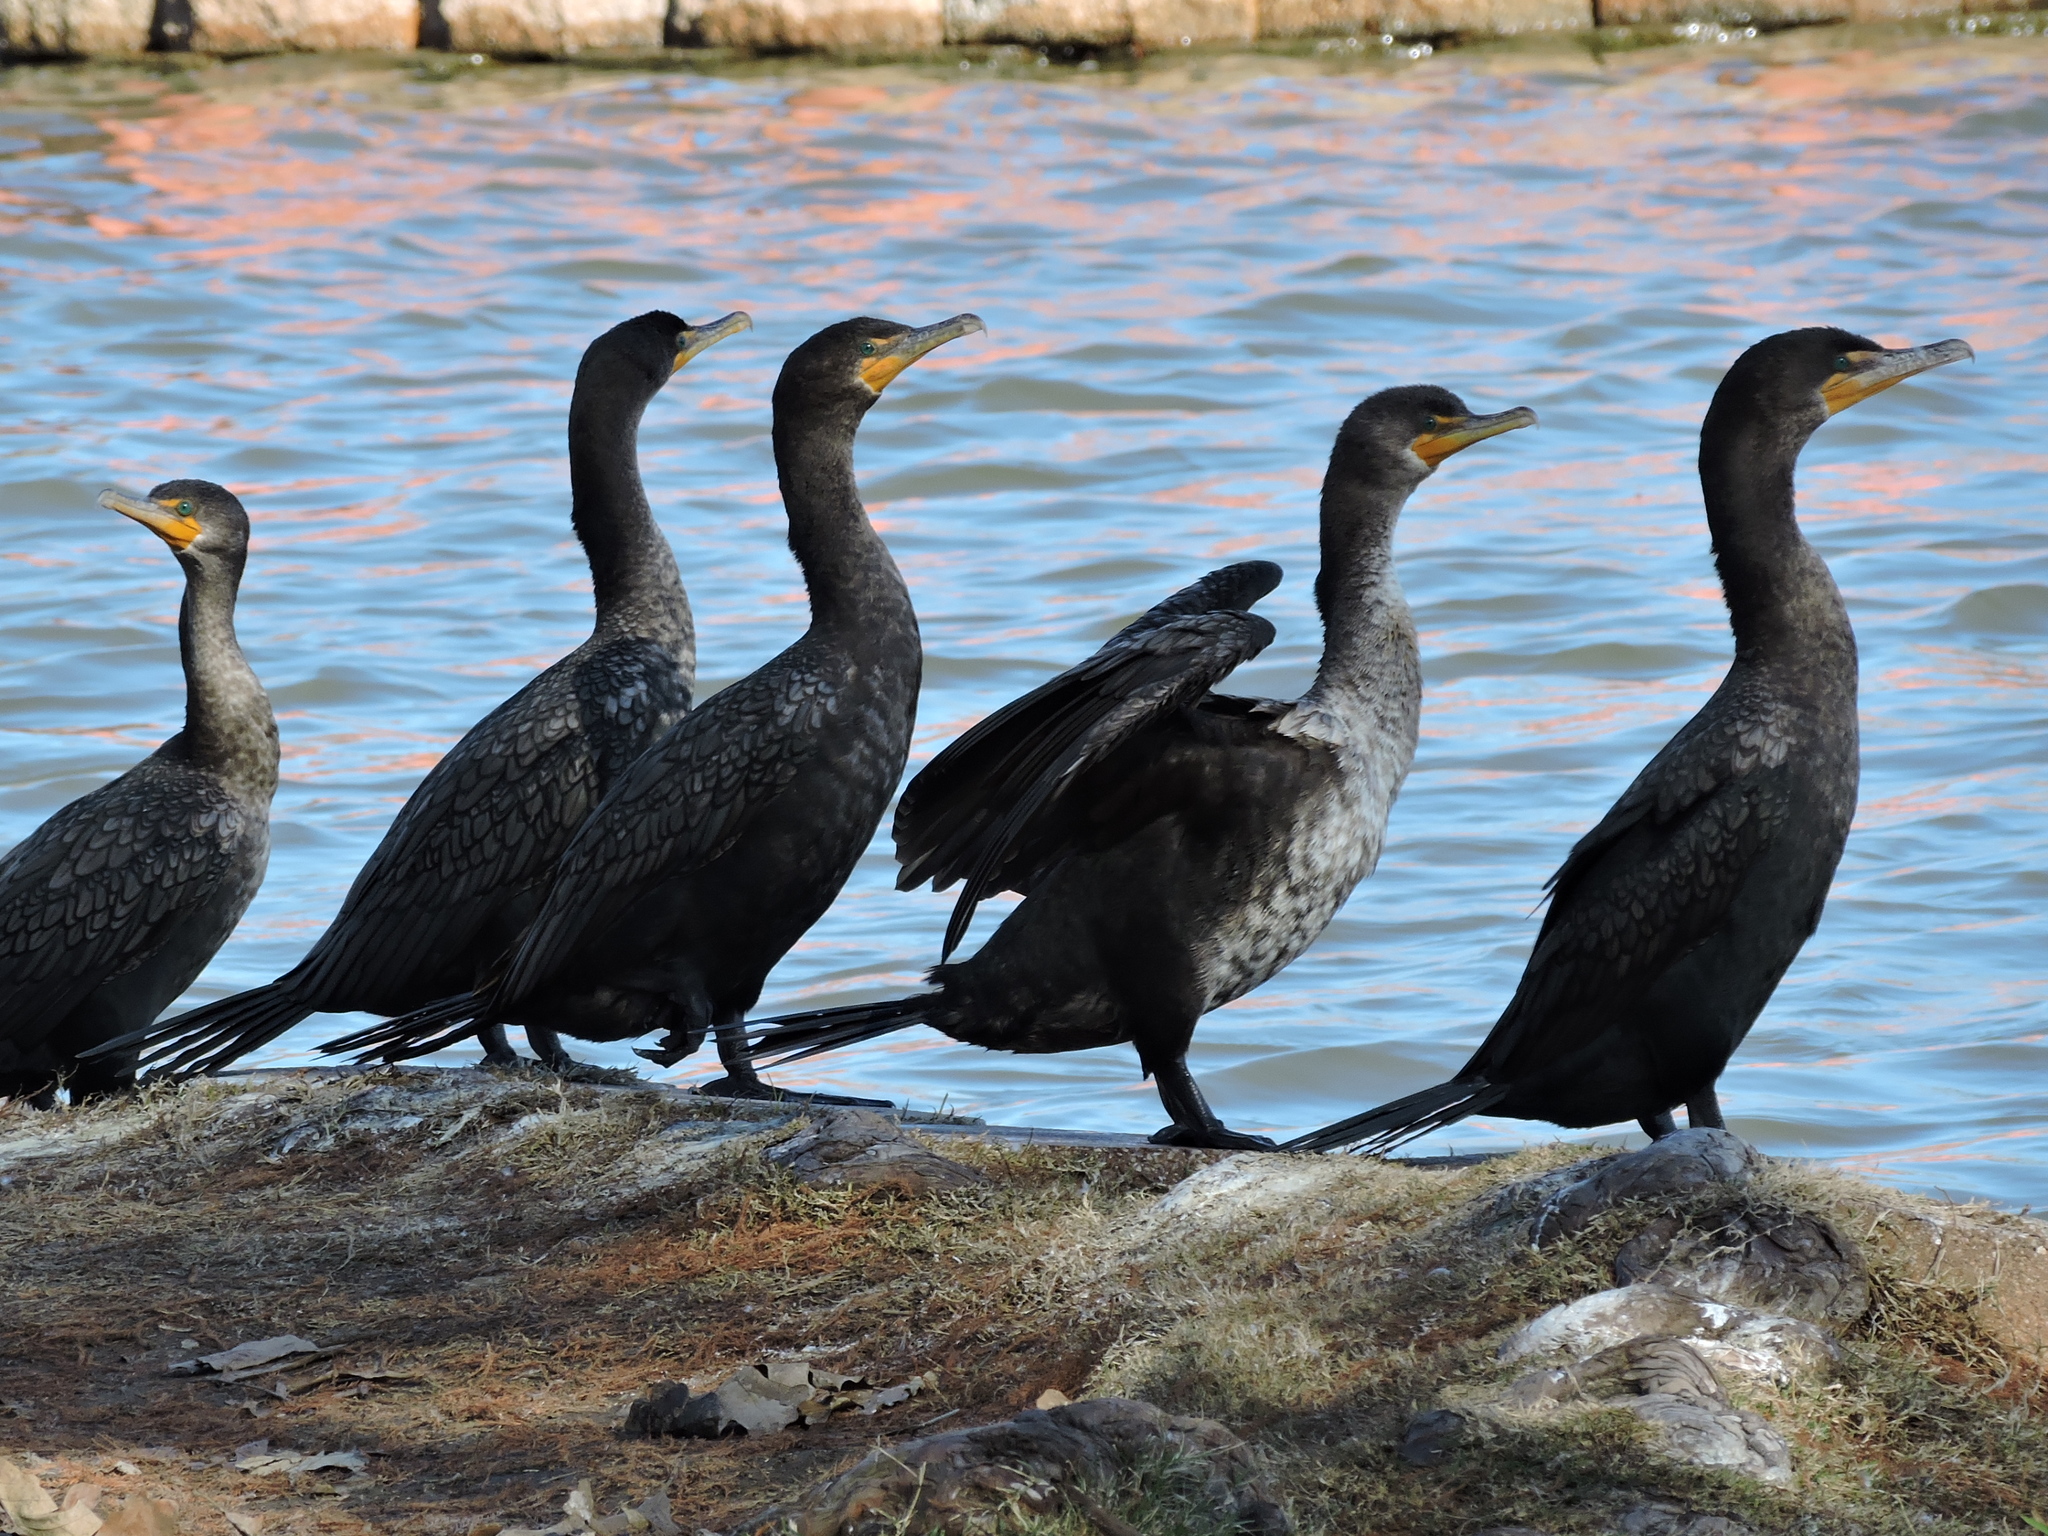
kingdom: Animalia
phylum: Chordata
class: Aves
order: Suliformes
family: Phalacrocoracidae
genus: Phalacrocorax
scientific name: Phalacrocorax auritus
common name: Double-crested cormorant
